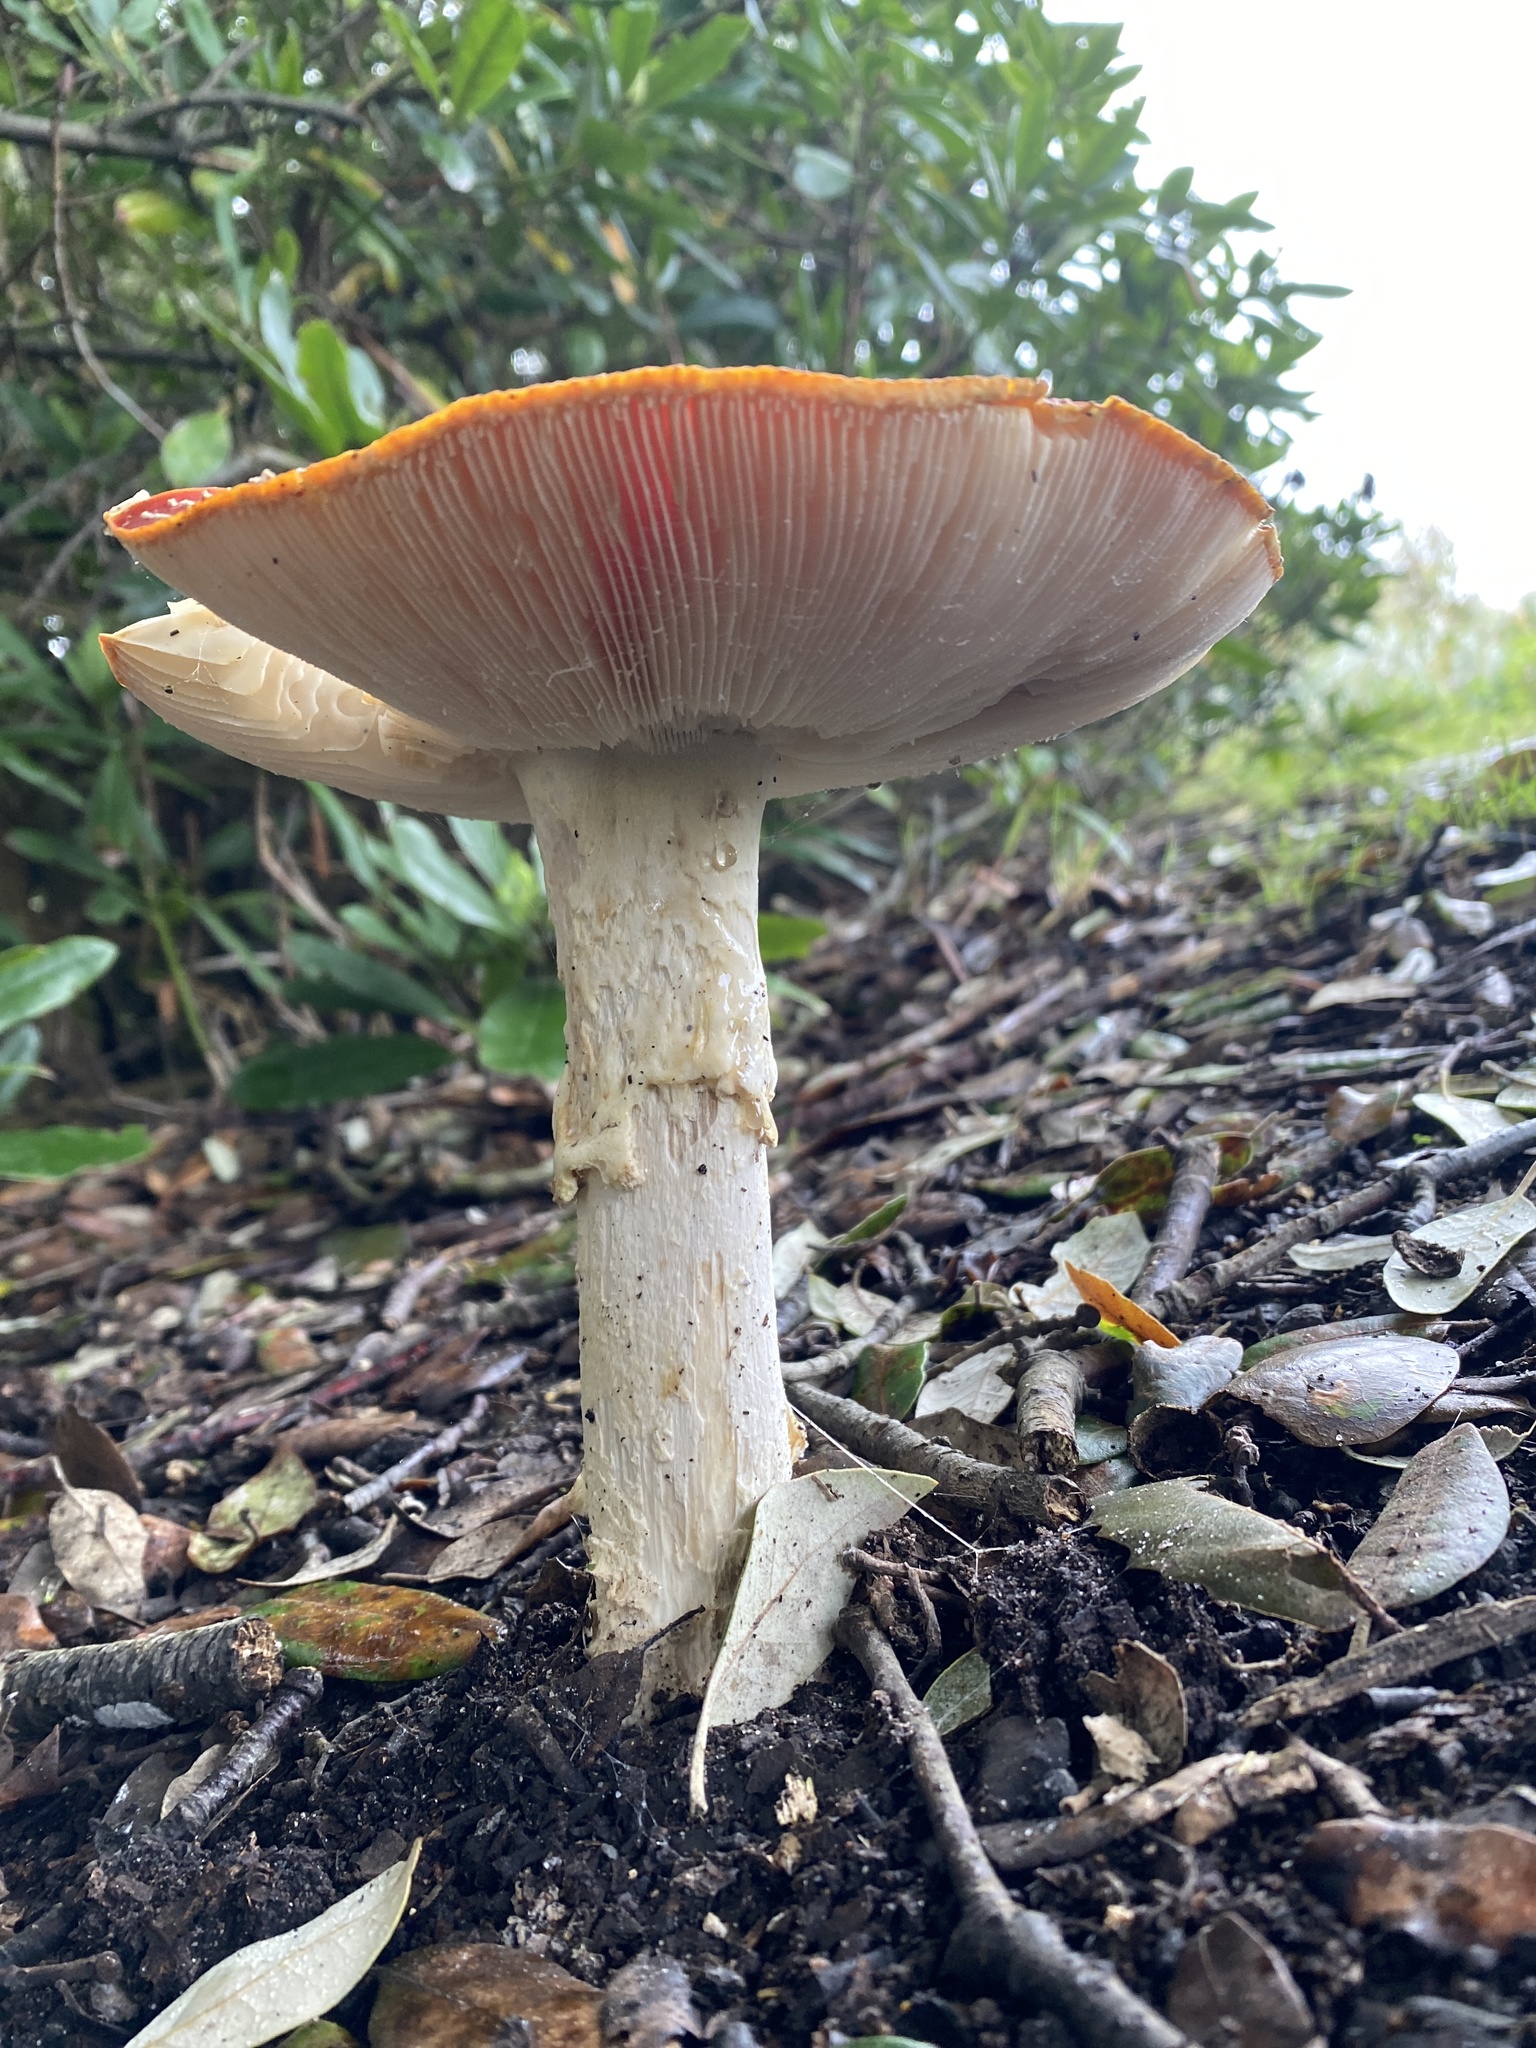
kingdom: Fungi
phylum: Basidiomycota
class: Agaricomycetes
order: Agaricales
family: Amanitaceae
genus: Amanita
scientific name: Amanita muscaria
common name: Fly agaric
